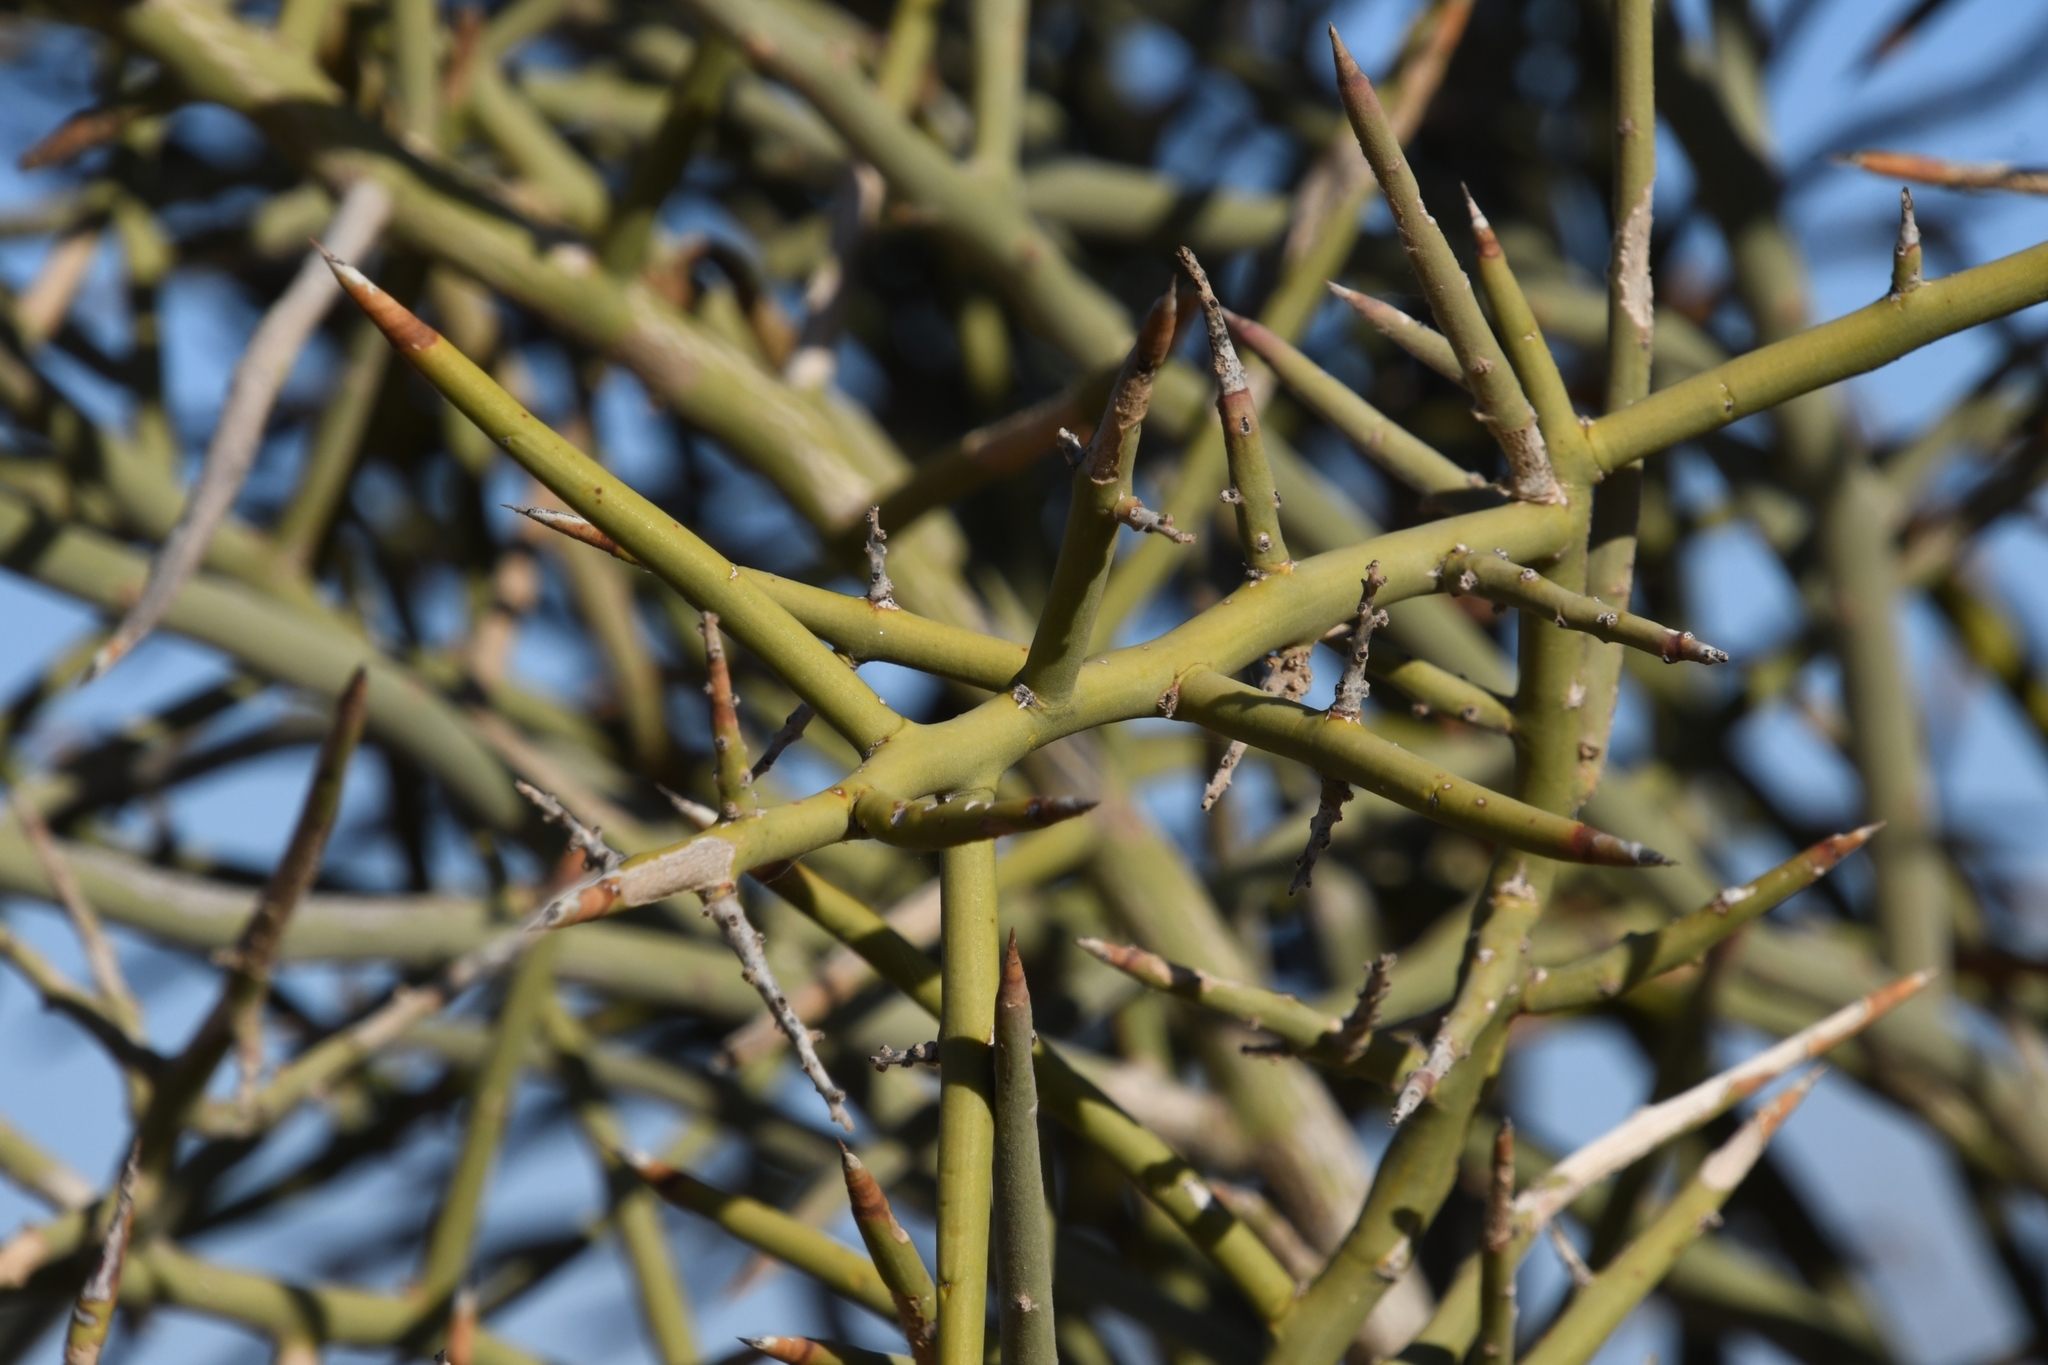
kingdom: Plantae
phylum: Tracheophyta
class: Magnoliopsida
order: Sapindales
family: Simaroubaceae
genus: Holacantha
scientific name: Holacantha emoryi
